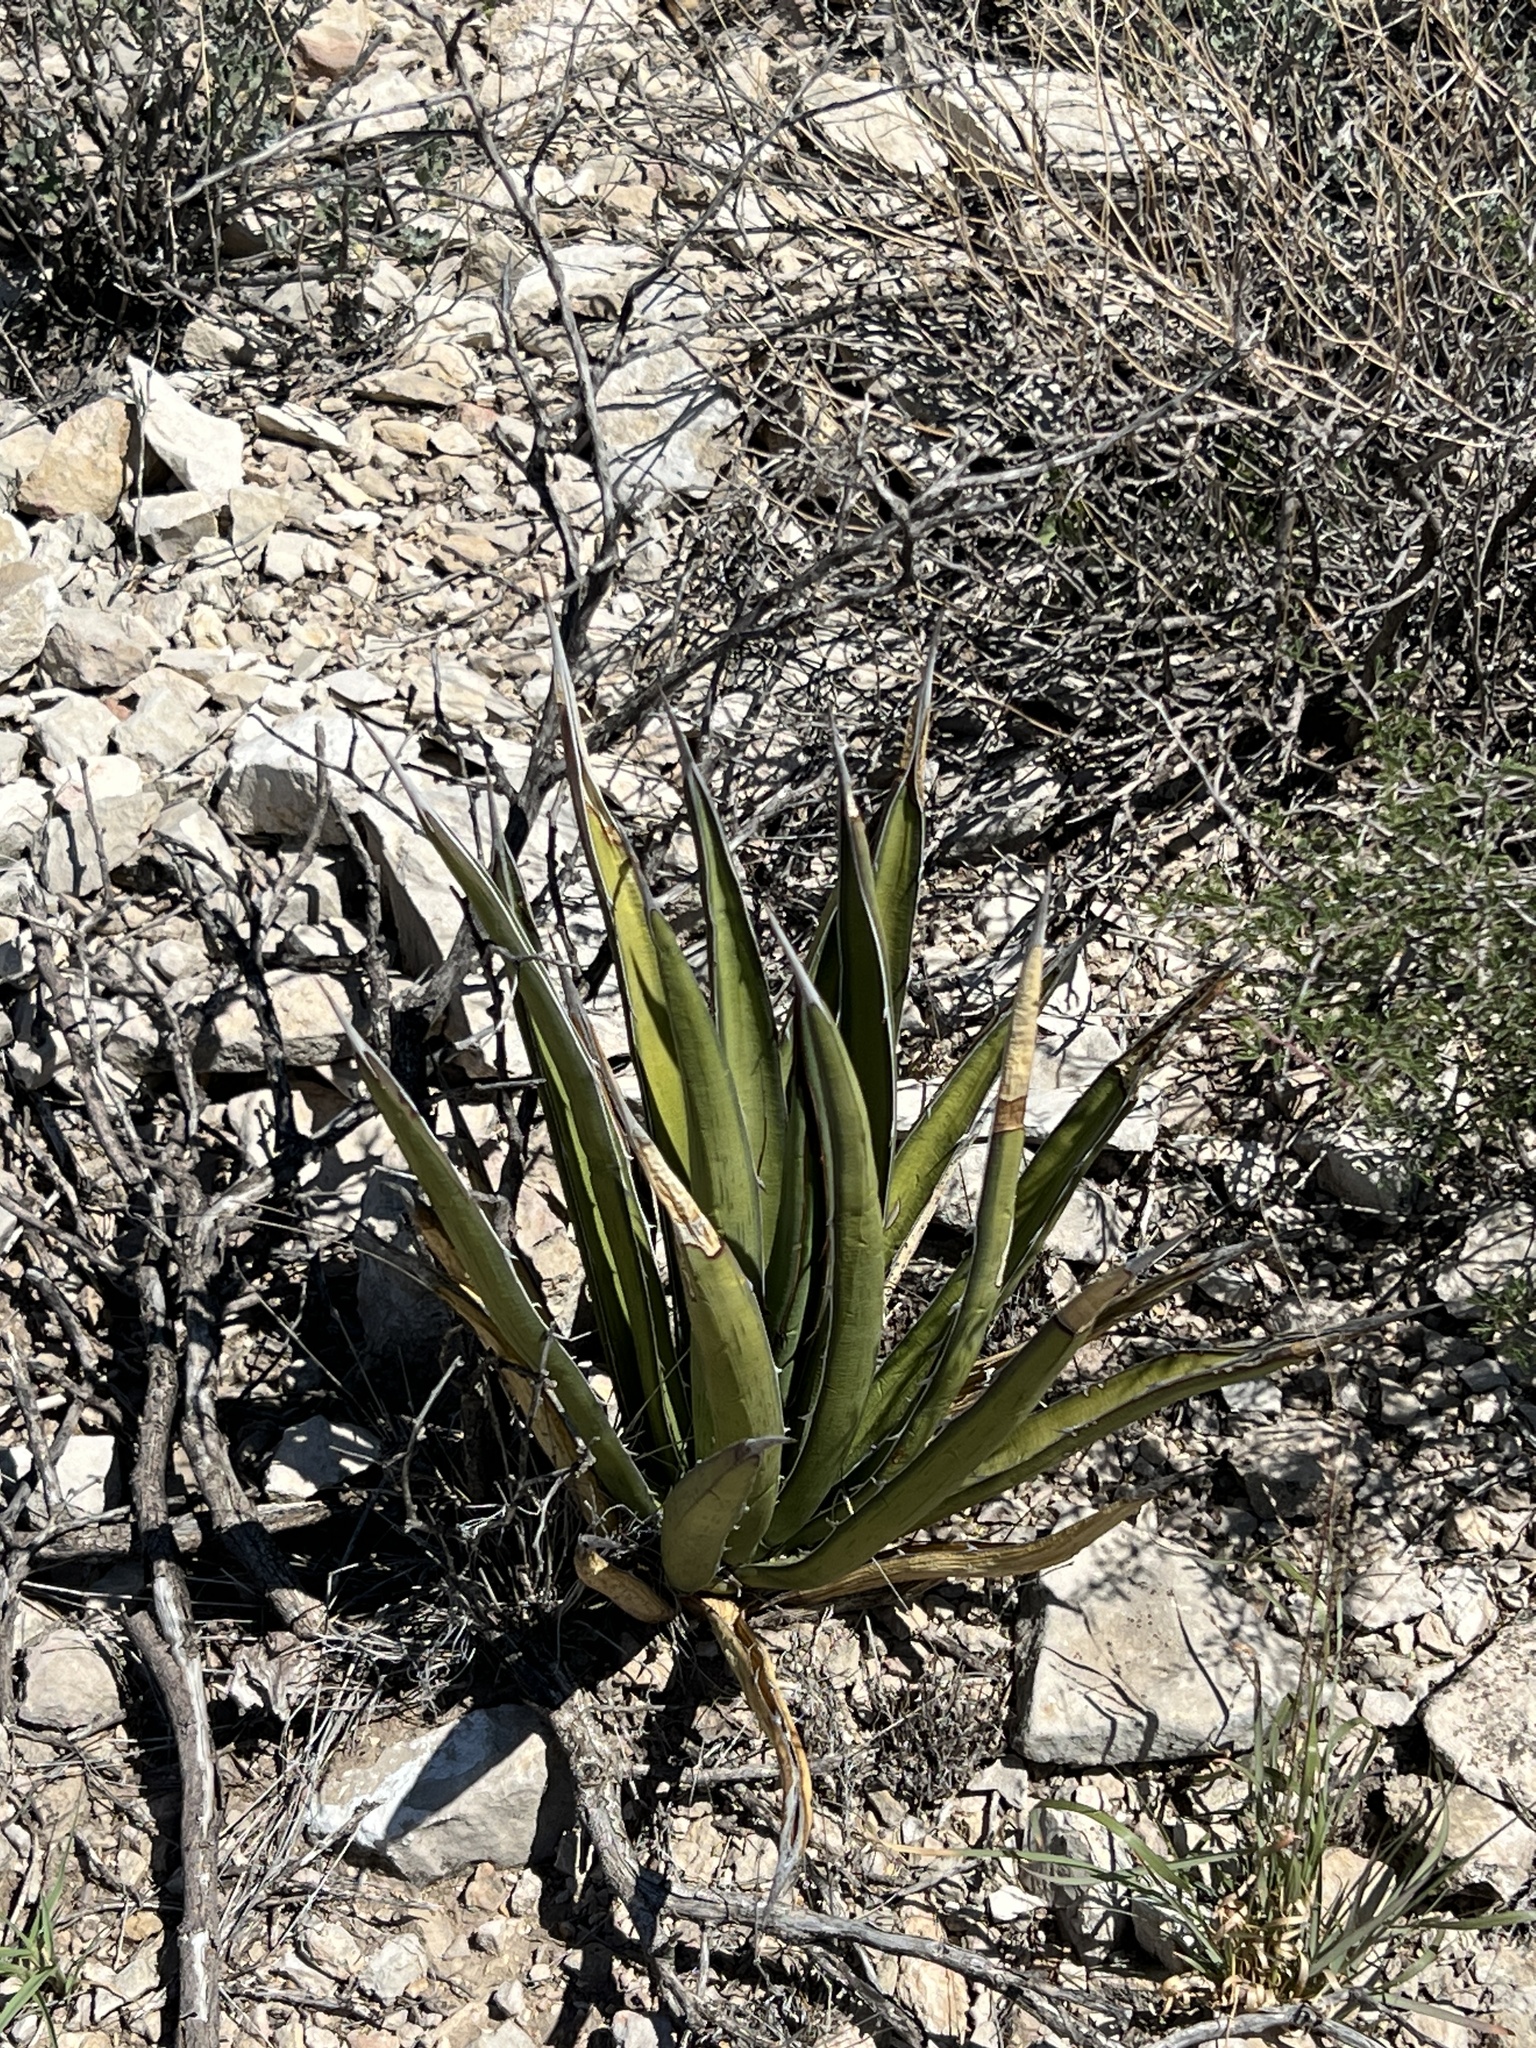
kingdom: Plantae
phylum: Tracheophyta
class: Liliopsida
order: Asparagales
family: Asparagaceae
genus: Agave
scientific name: Agave lechuguilla
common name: Lecheguilla agave
